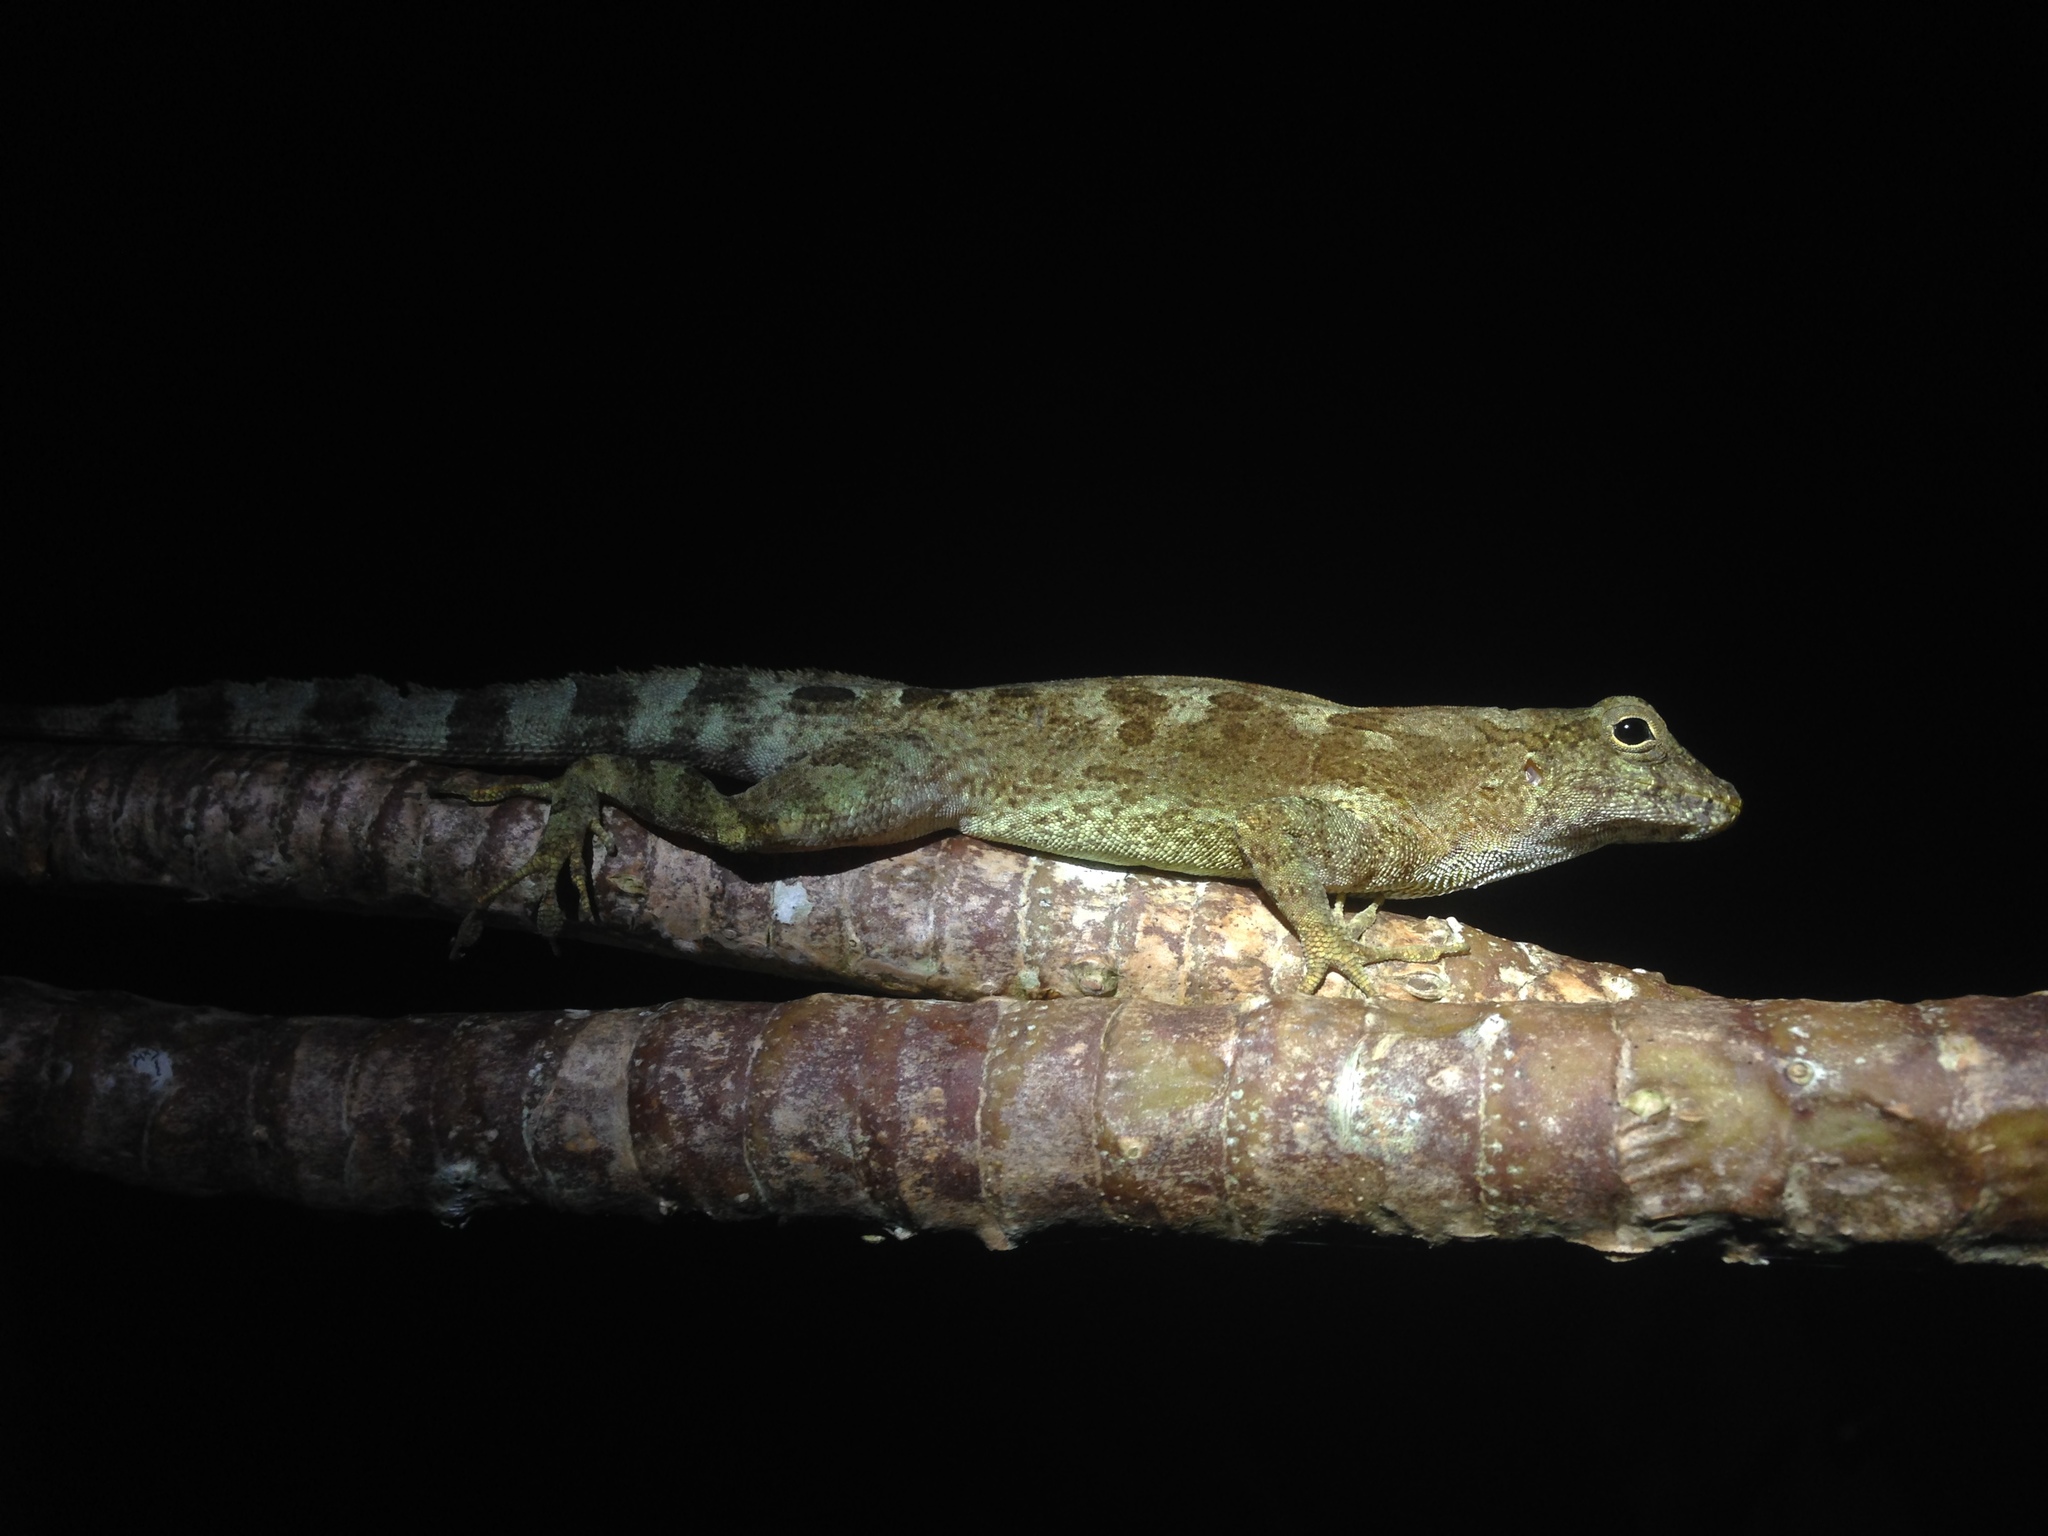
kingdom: Animalia
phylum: Chordata
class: Squamata
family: Dactyloidae
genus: Anolis
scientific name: Anolis cristatellus
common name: Crested anole
